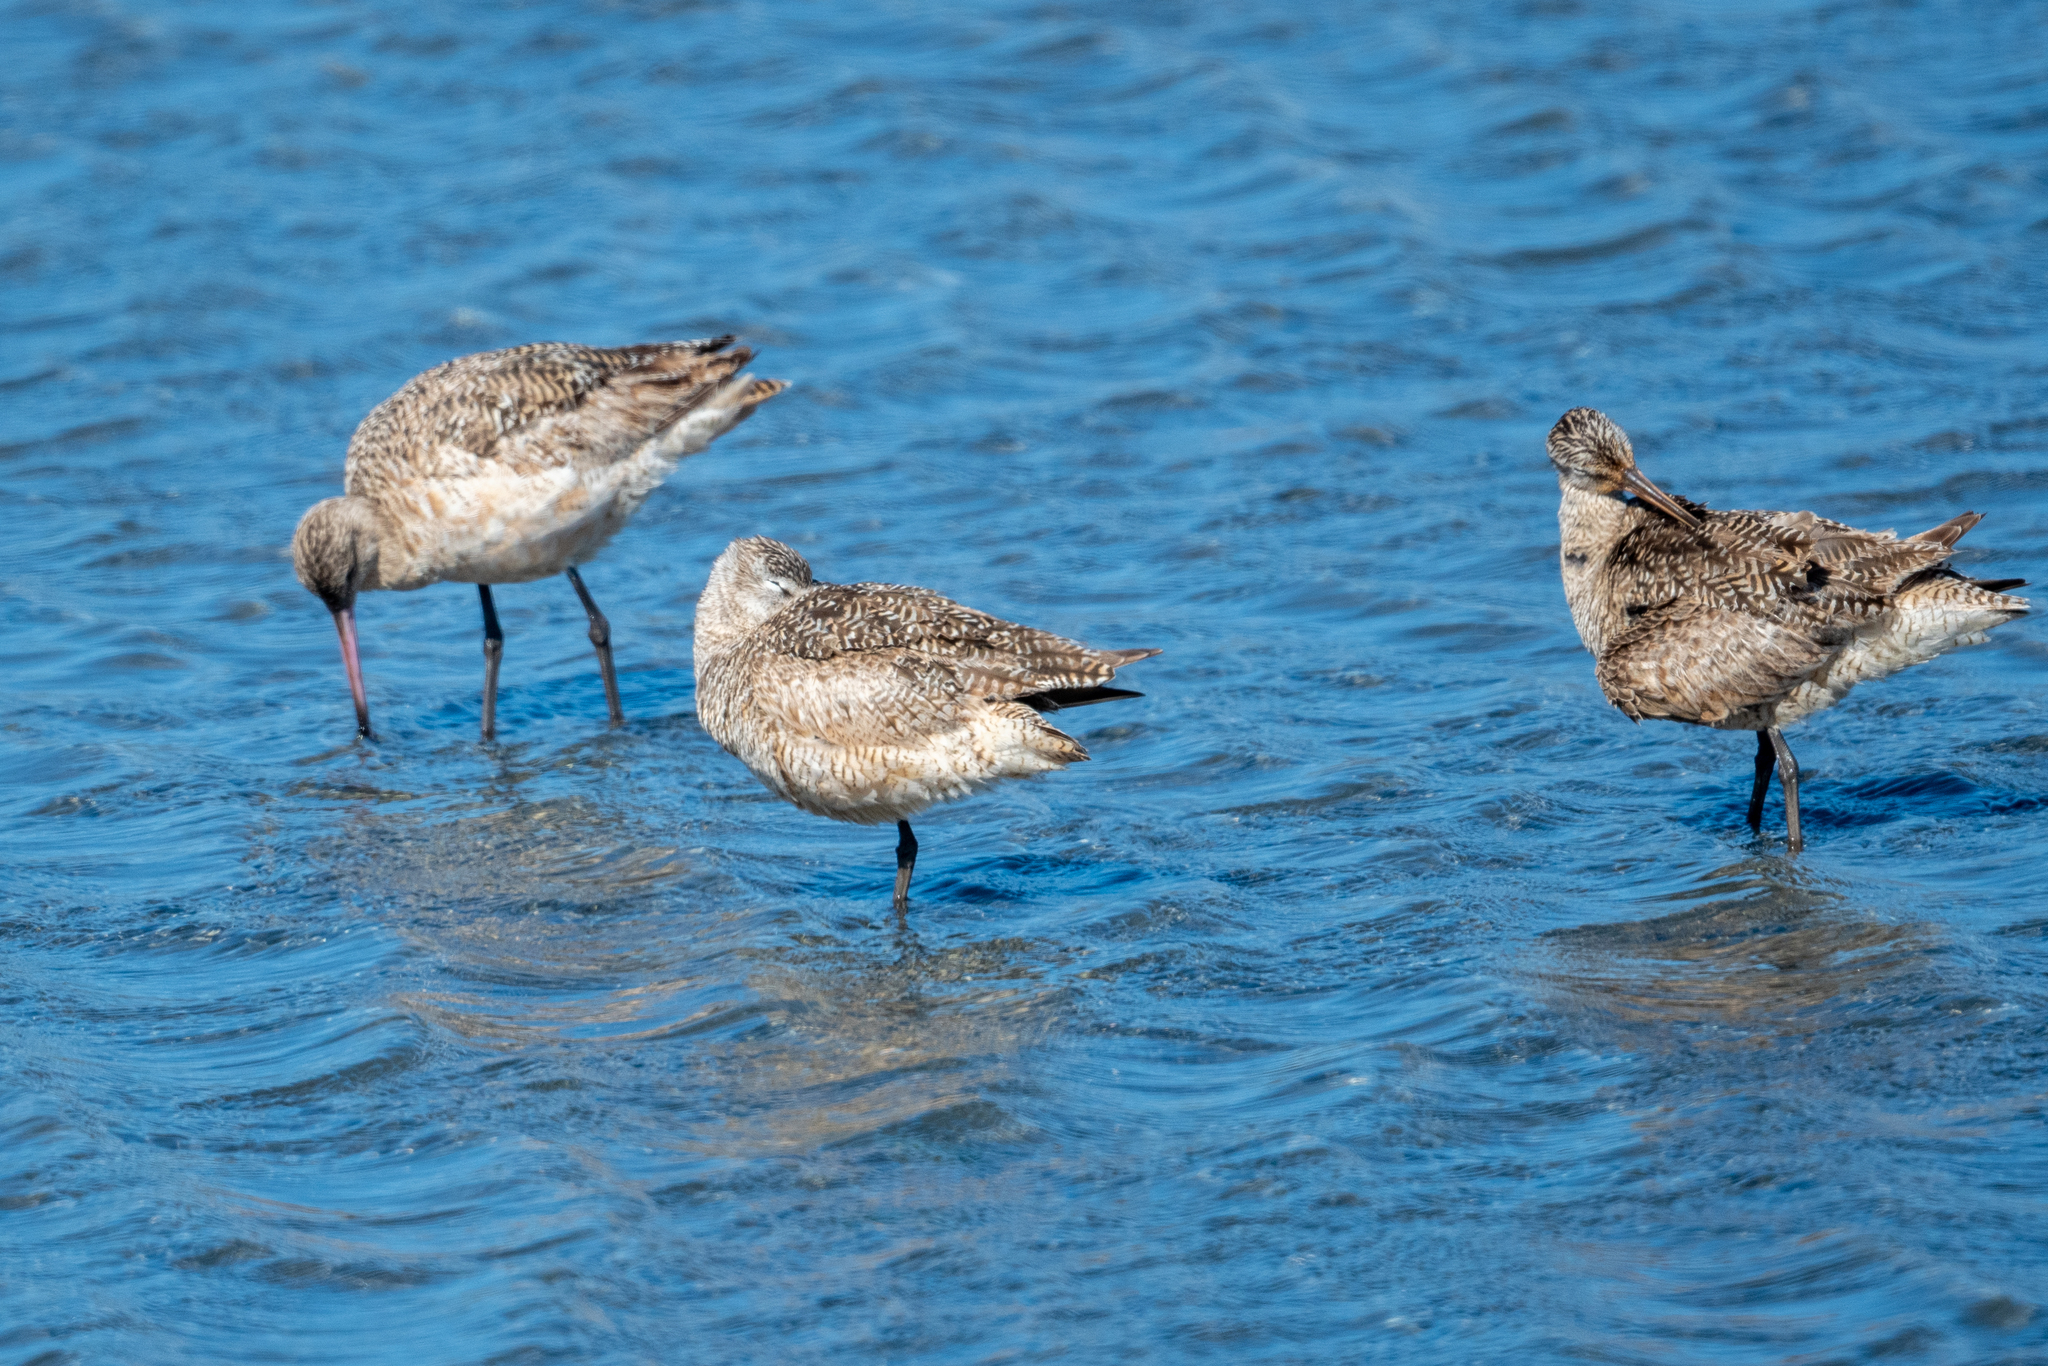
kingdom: Animalia
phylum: Chordata
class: Aves
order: Charadriiformes
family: Scolopacidae
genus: Limosa
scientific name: Limosa fedoa
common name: Marbled godwit
